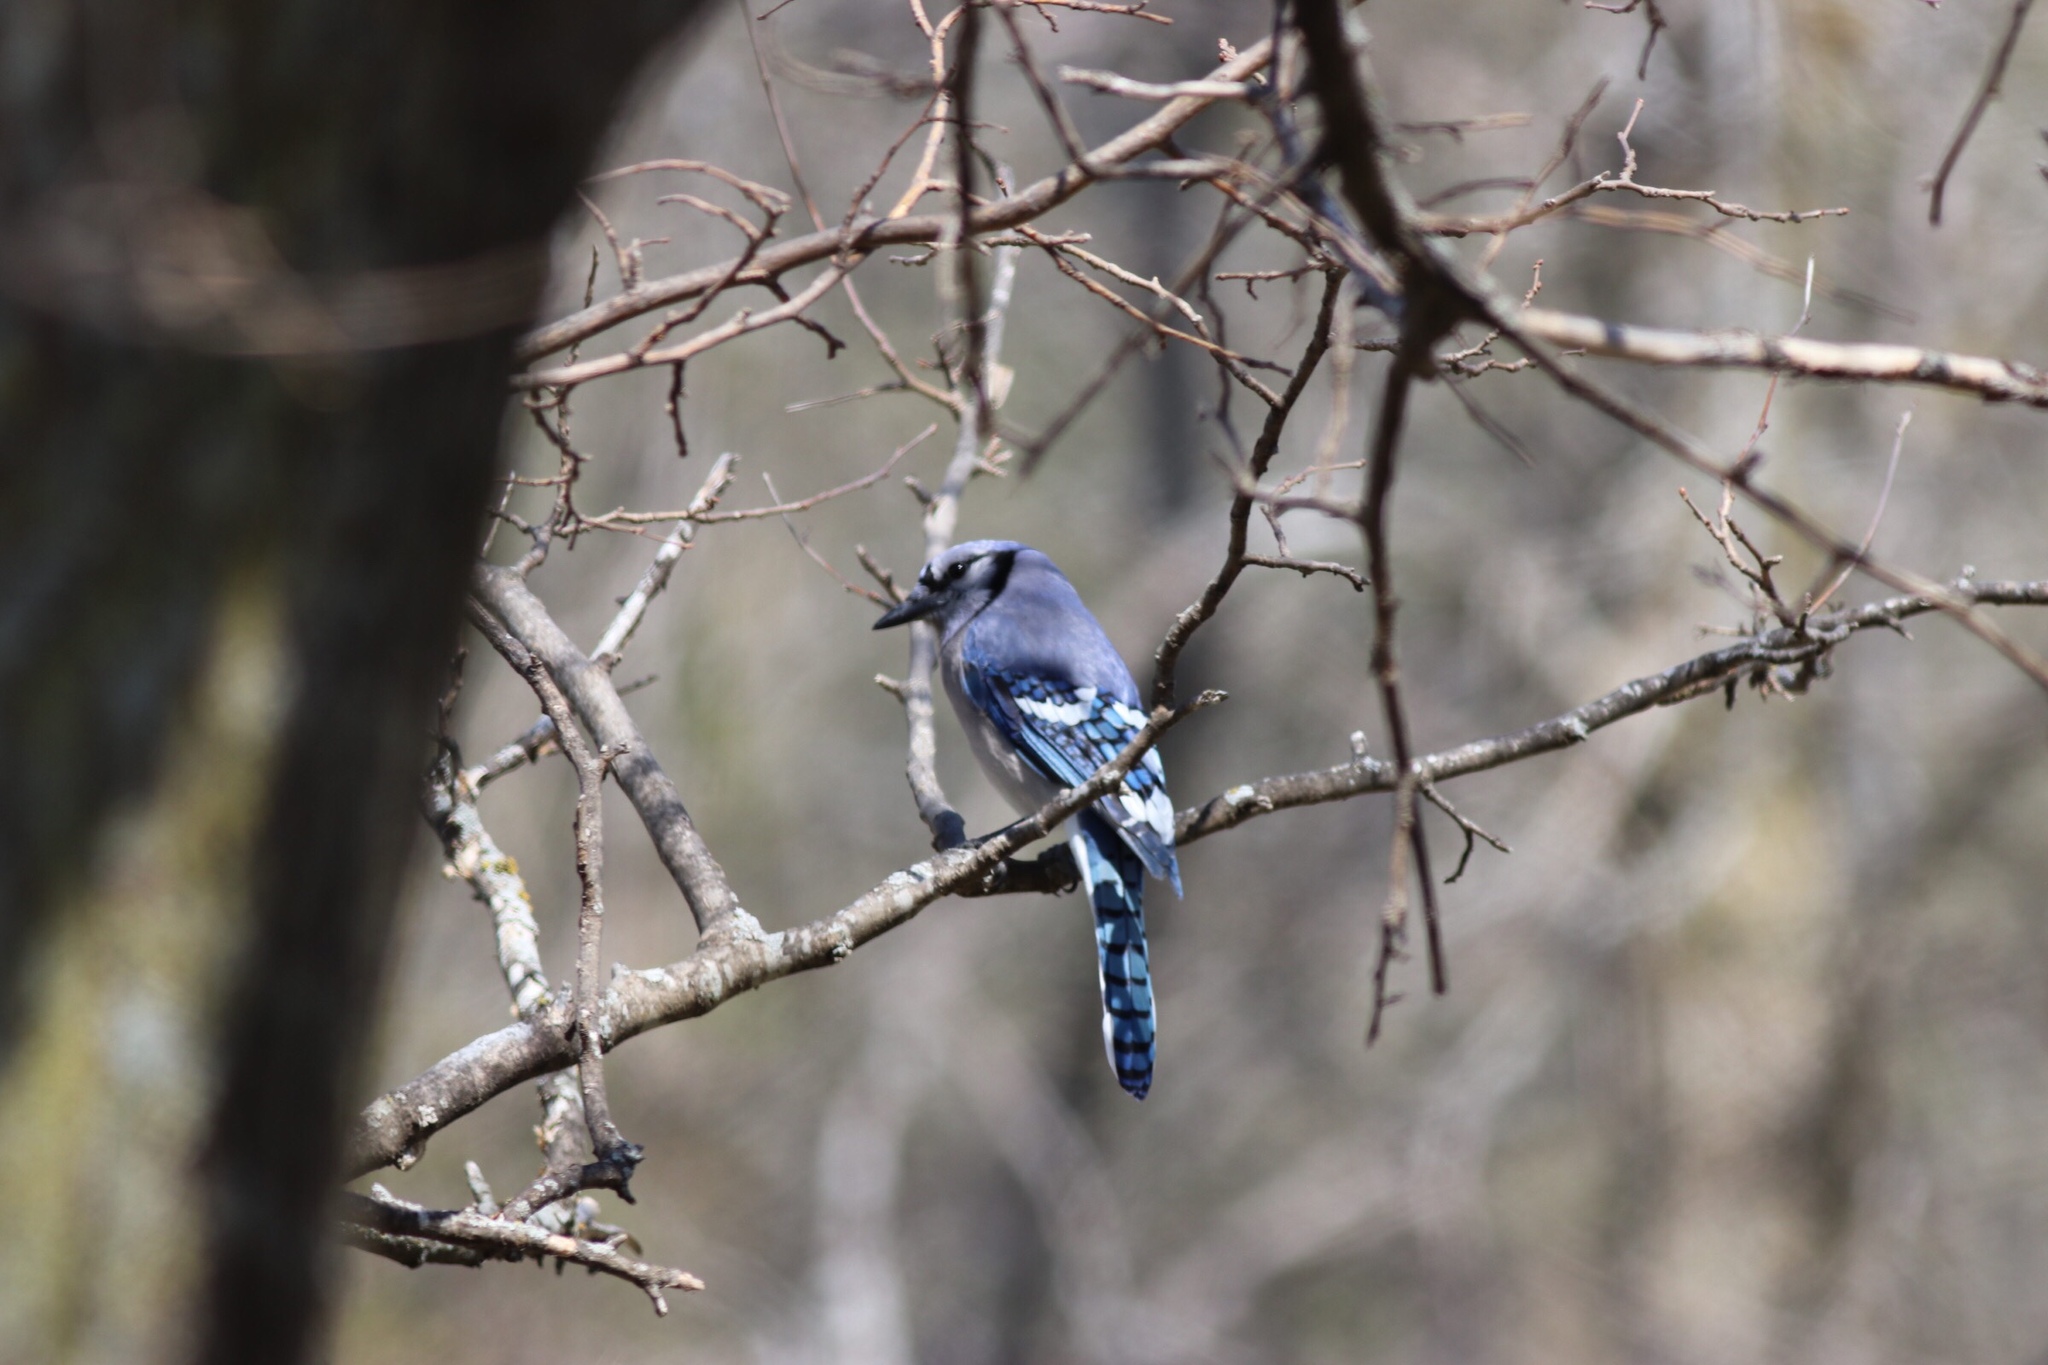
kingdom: Animalia
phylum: Chordata
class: Aves
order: Passeriformes
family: Corvidae
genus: Cyanocitta
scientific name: Cyanocitta cristata
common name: Blue jay
